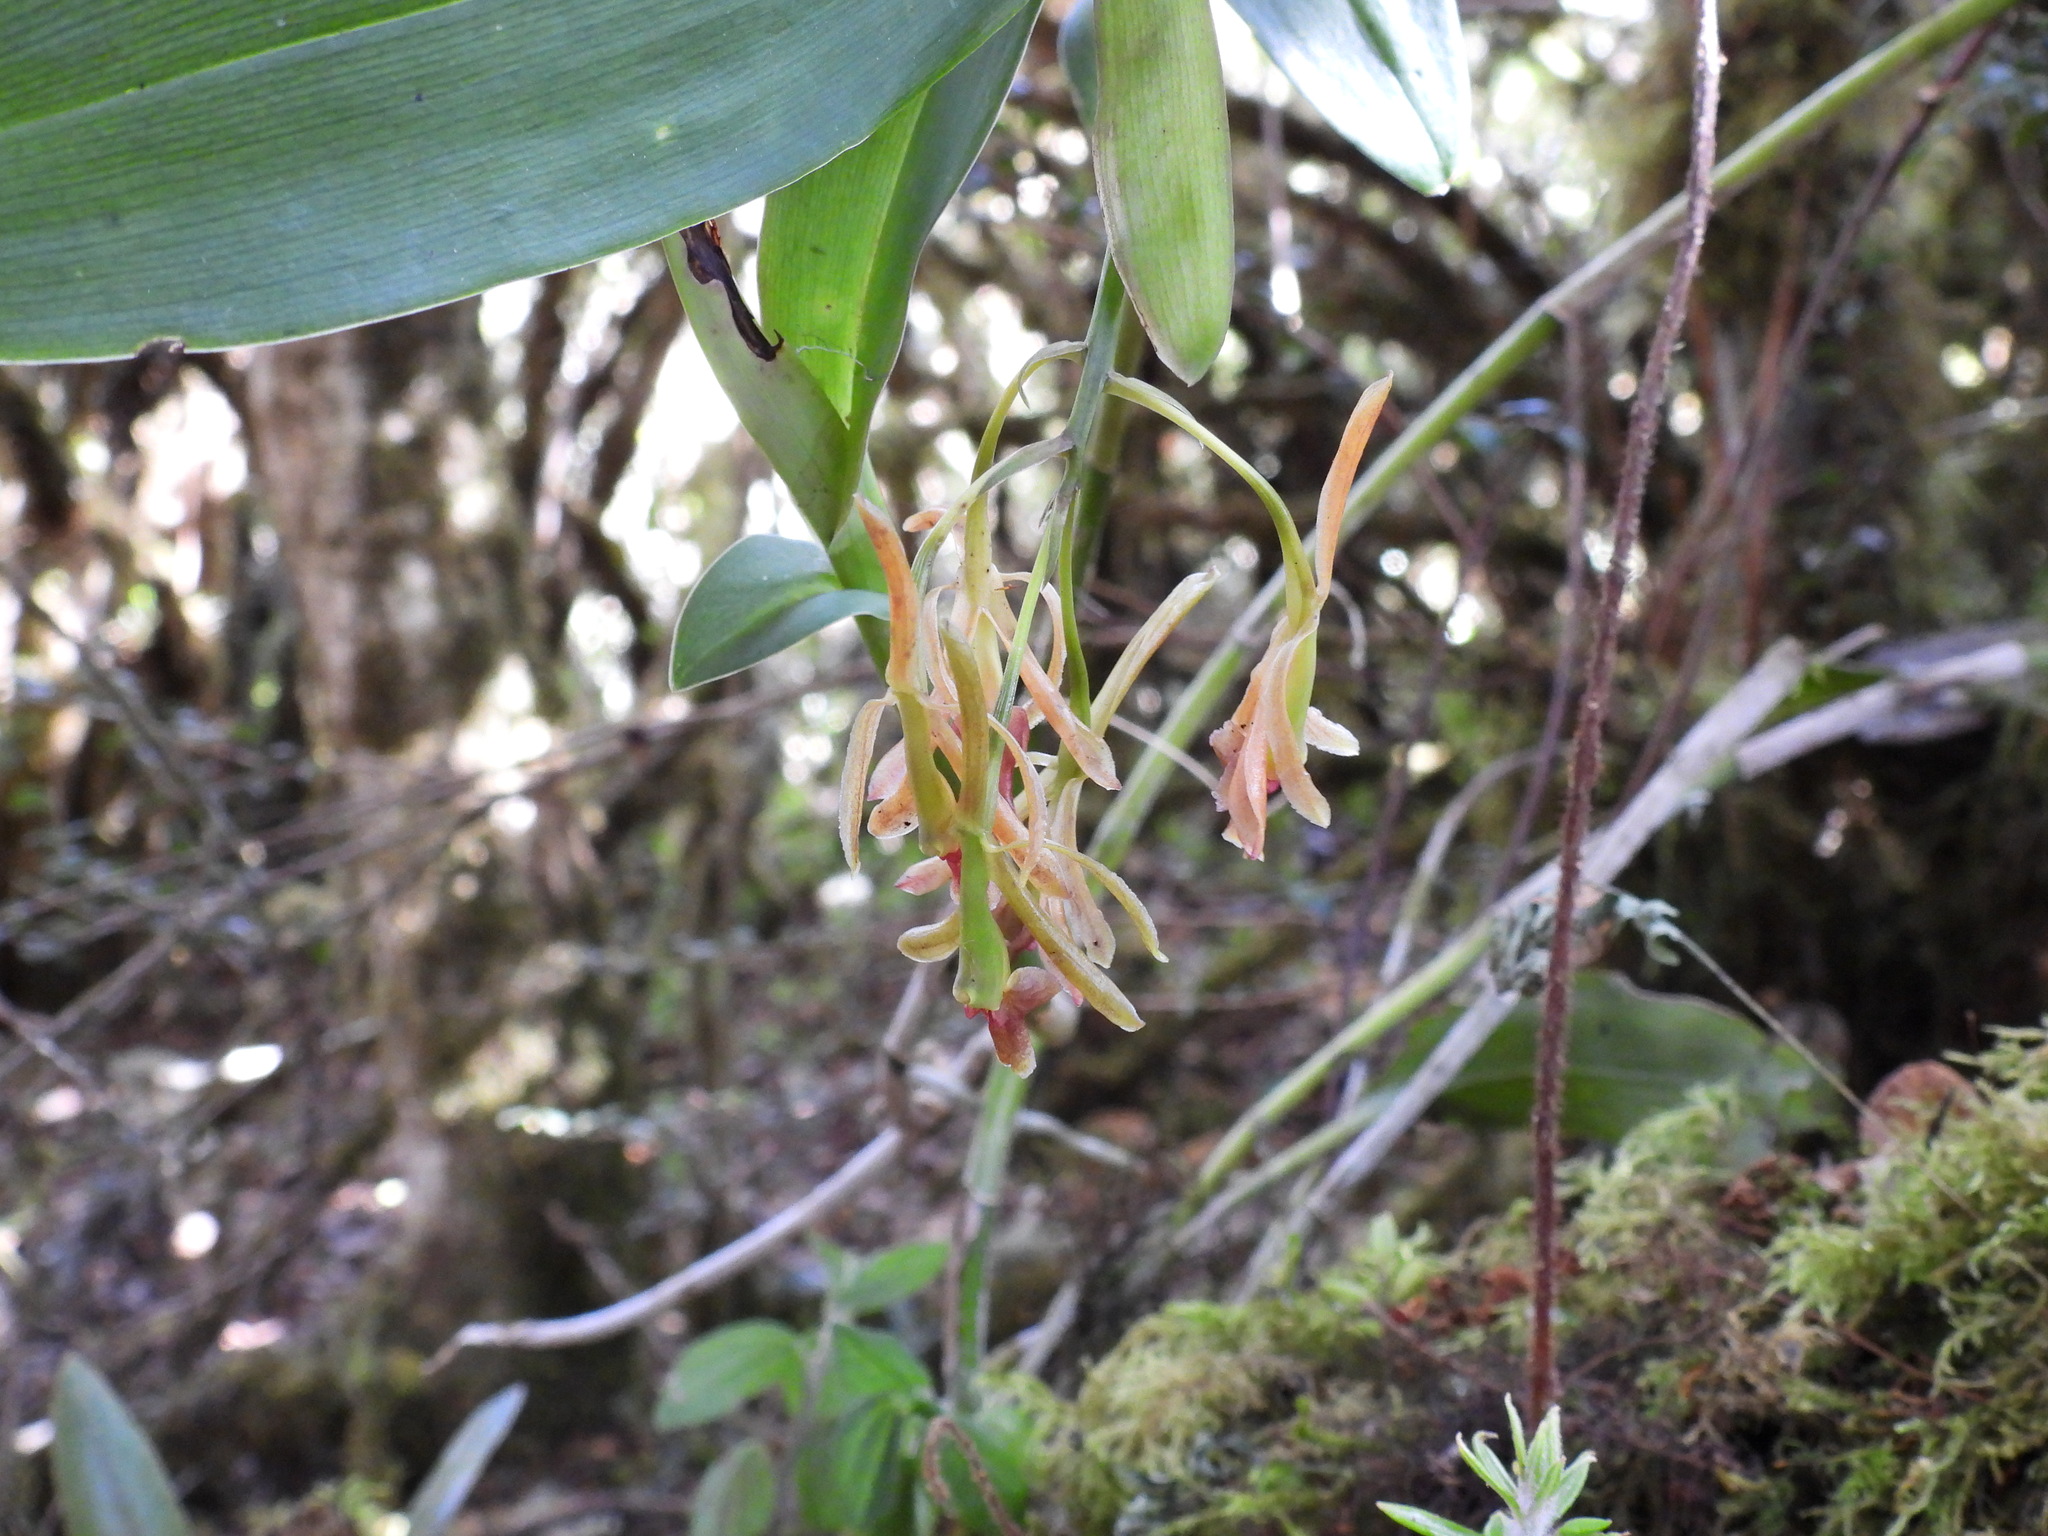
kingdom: Plantae
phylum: Tracheophyta
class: Liliopsida
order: Asparagales
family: Orchidaceae
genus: Epidendrum
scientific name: Epidendrum sisgaense
